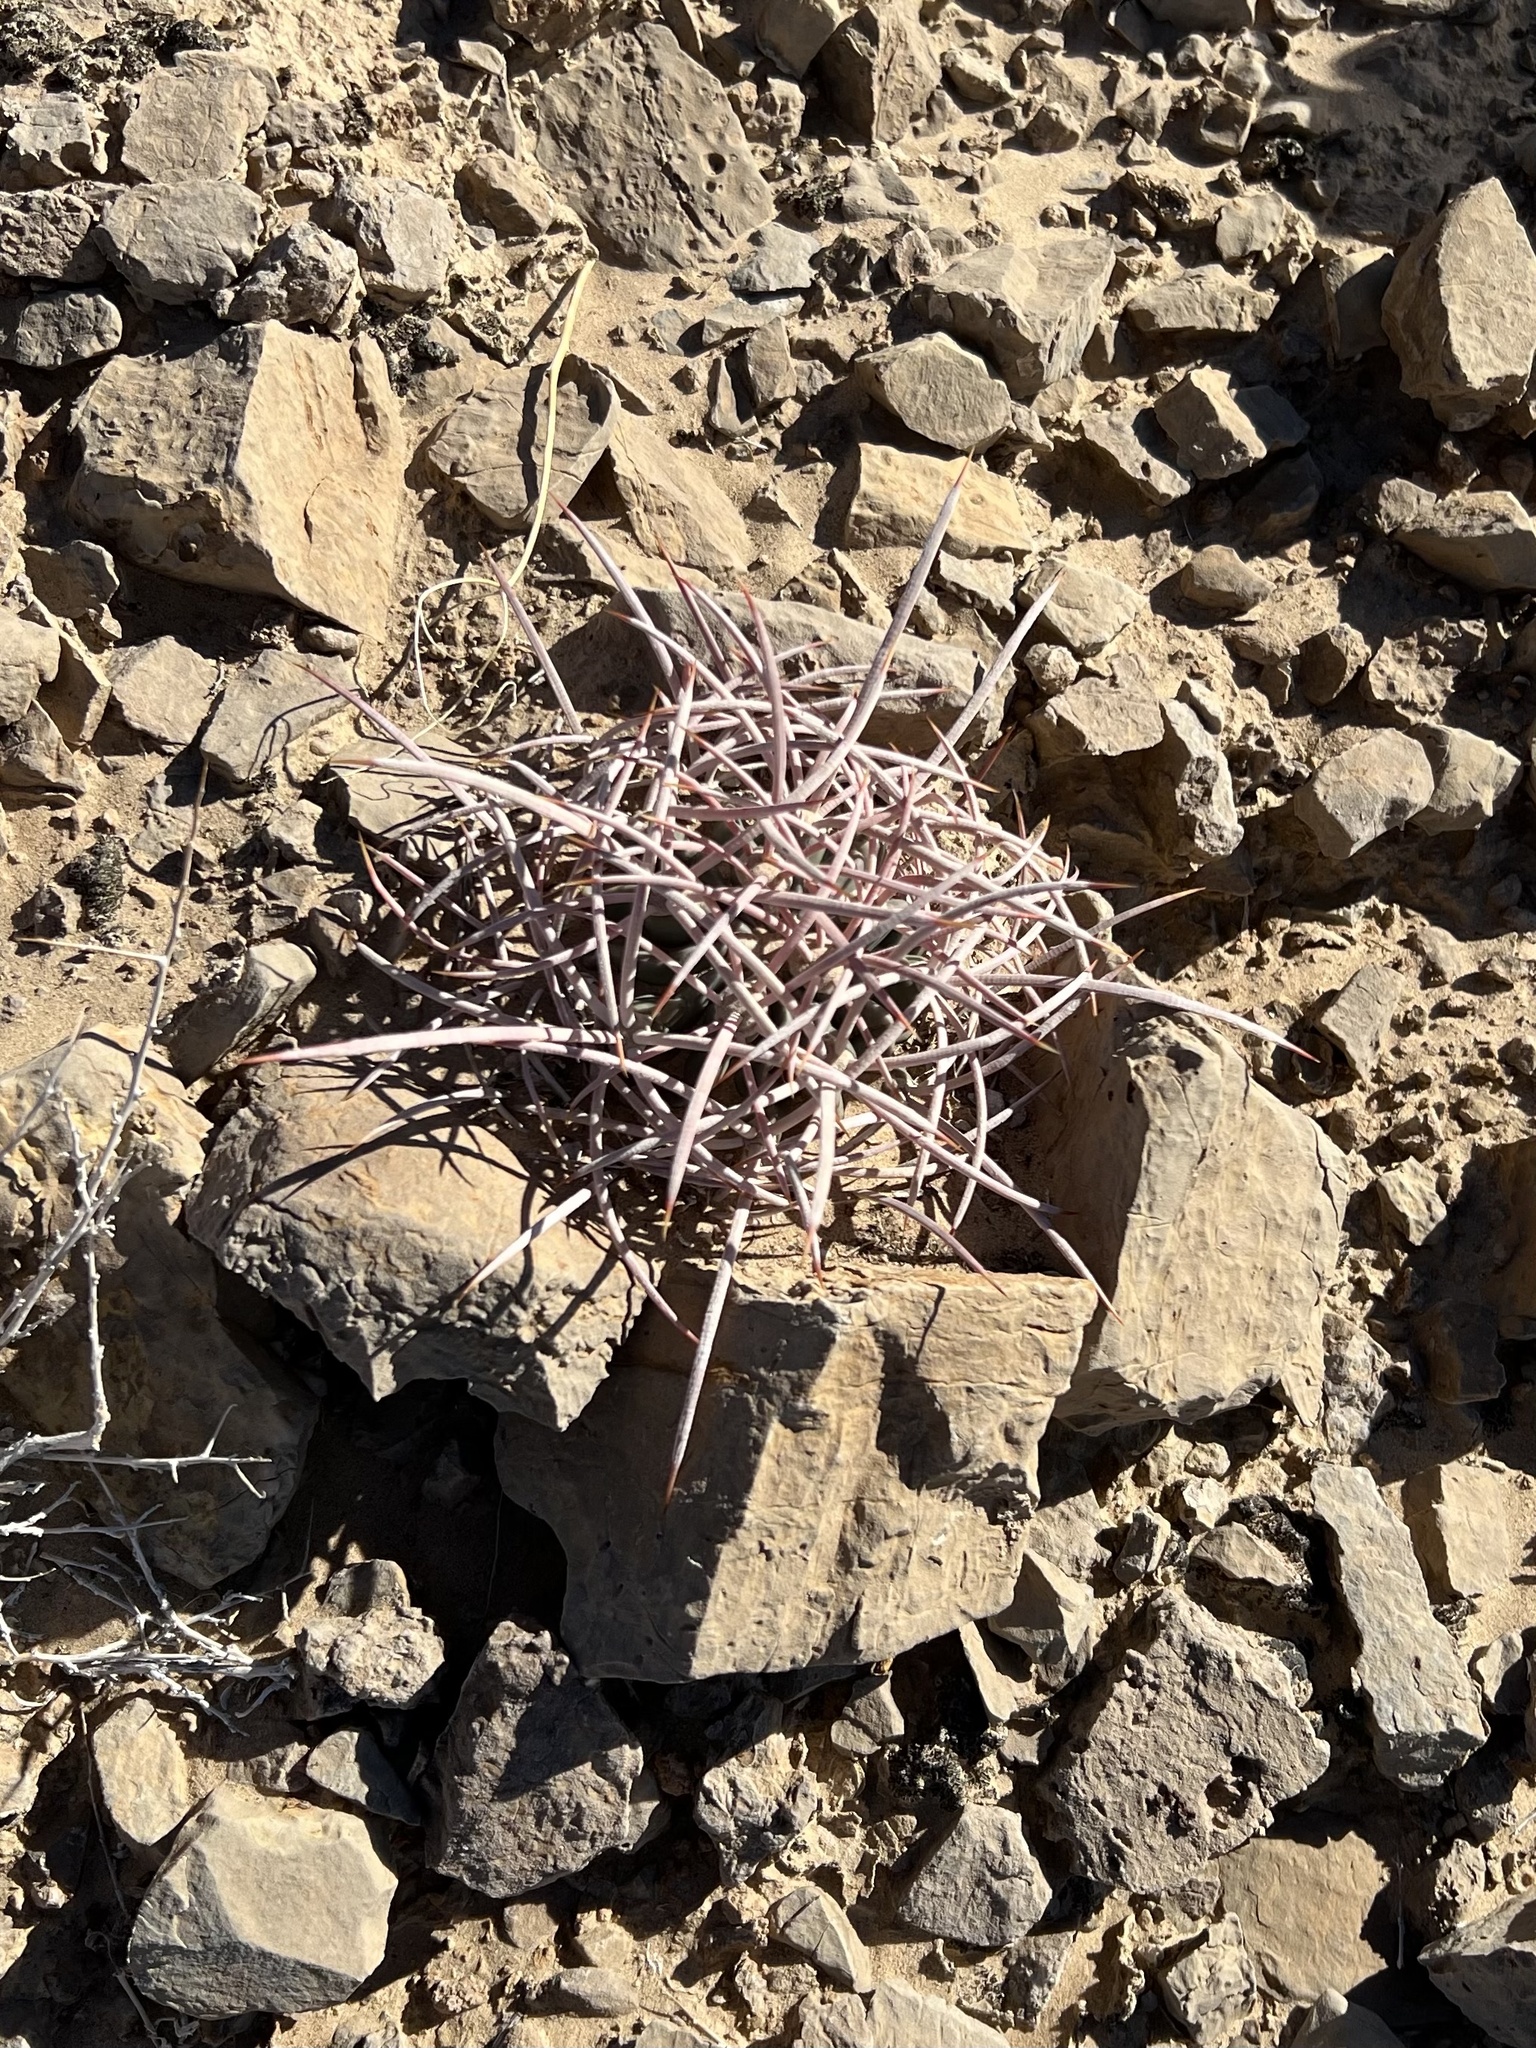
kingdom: Plantae
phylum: Tracheophyta
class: Magnoliopsida
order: Caryophyllales
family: Cactaceae
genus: Echinocactus
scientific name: Echinocactus polycephalus
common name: Cottontop cactus
